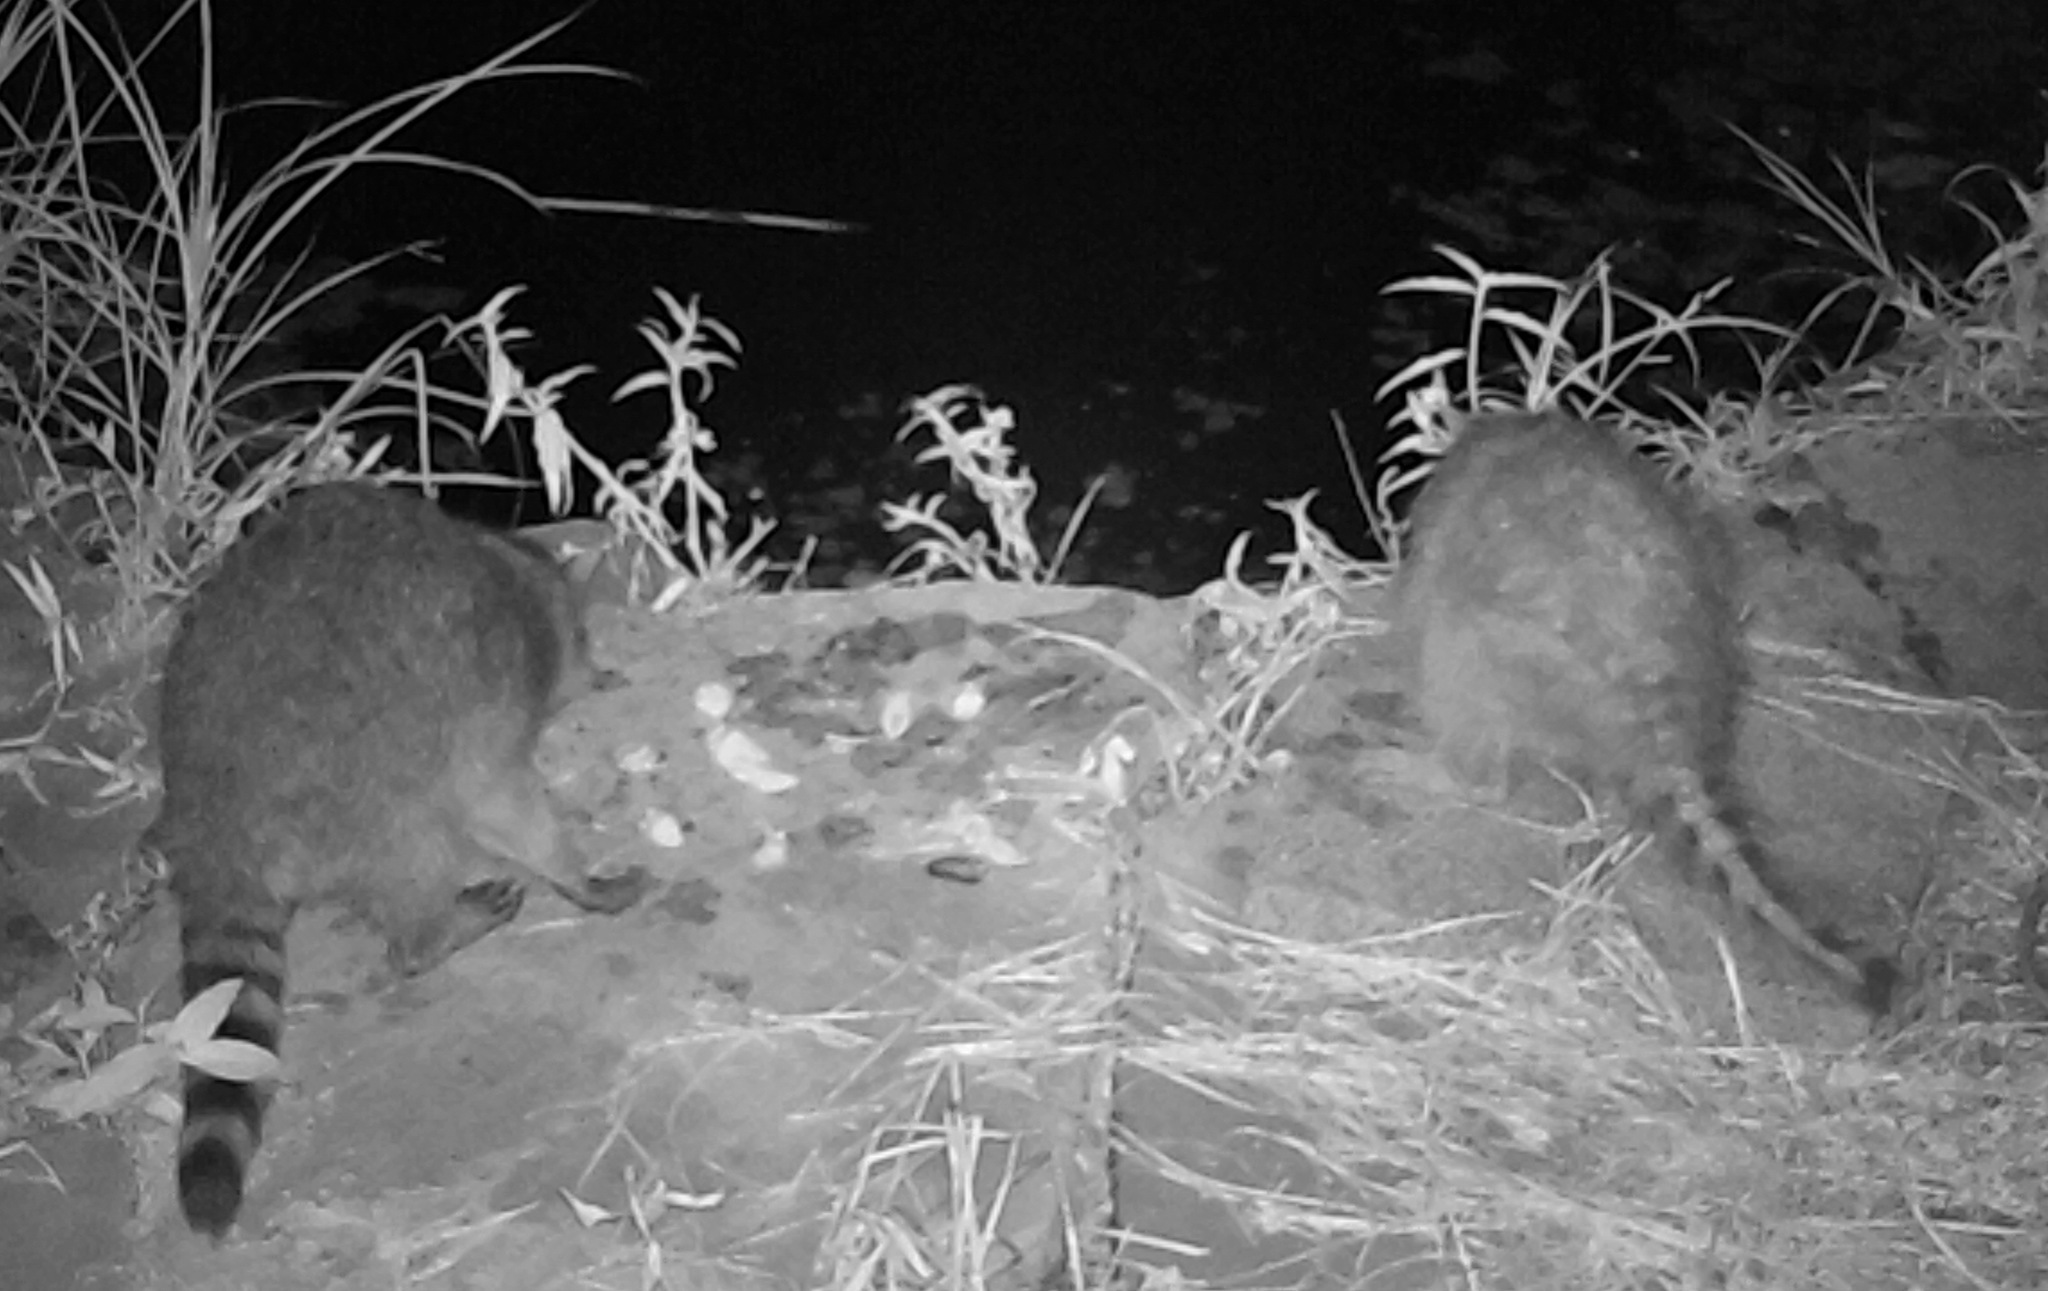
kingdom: Animalia
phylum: Chordata
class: Mammalia
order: Carnivora
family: Procyonidae
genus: Procyon
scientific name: Procyon lotor
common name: Raccoon
